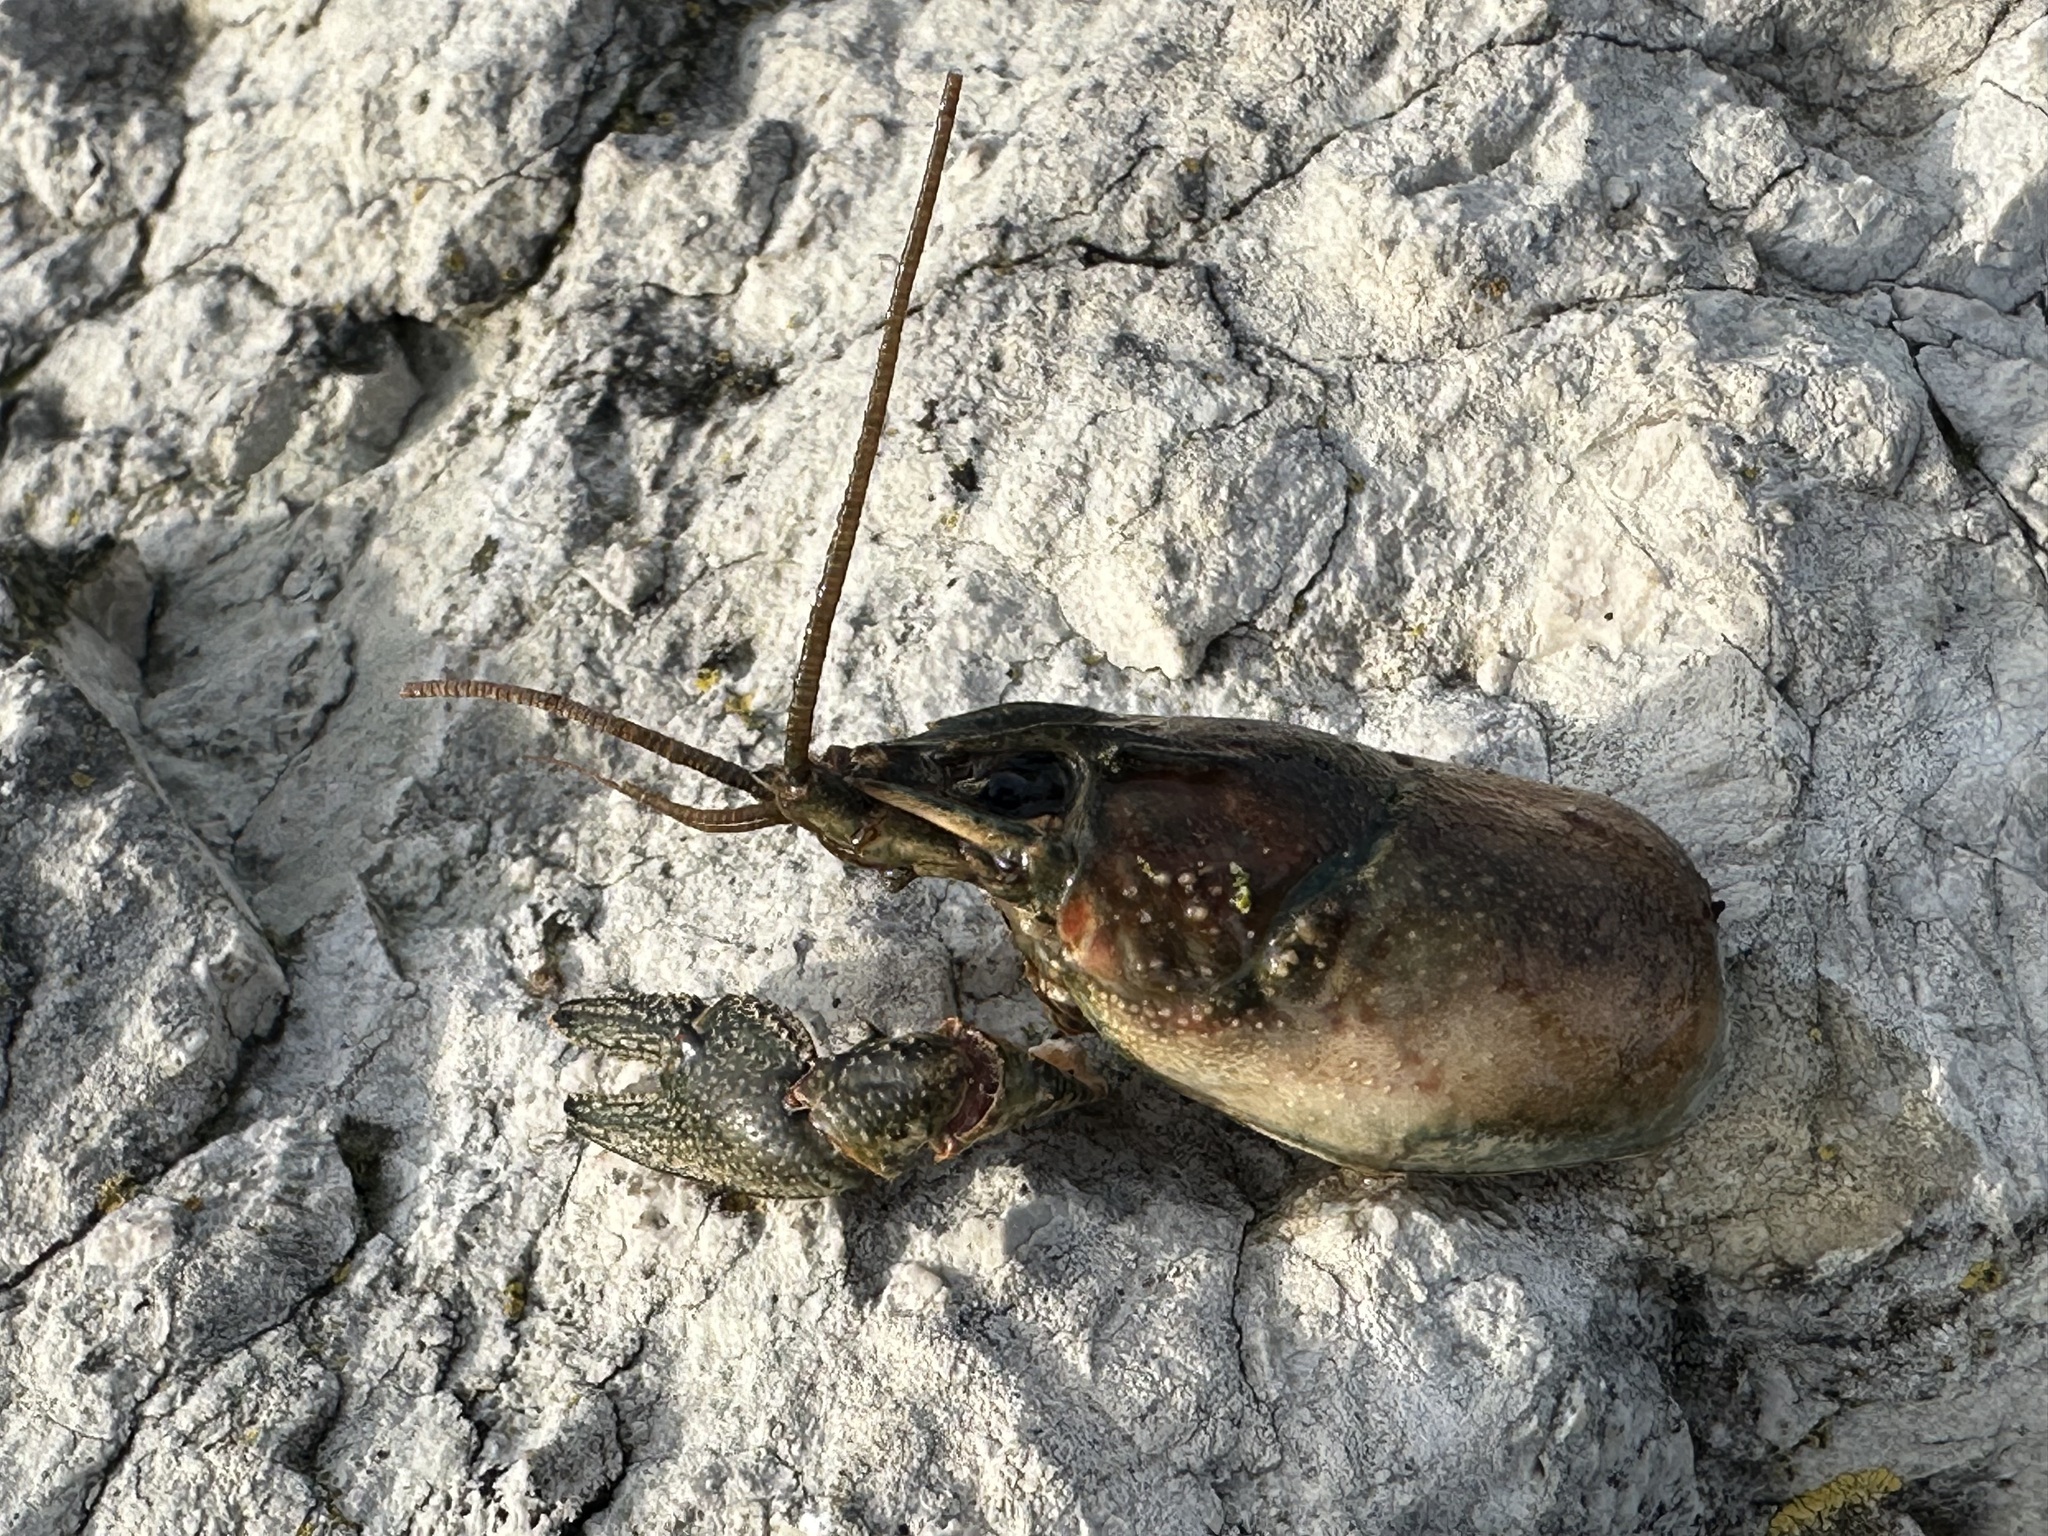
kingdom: Animalia
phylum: Arthropoda
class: Malacostraca
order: Decapoda
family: Cambaridae
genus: Faxonius
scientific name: Faxonius limosus
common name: American crayfish
